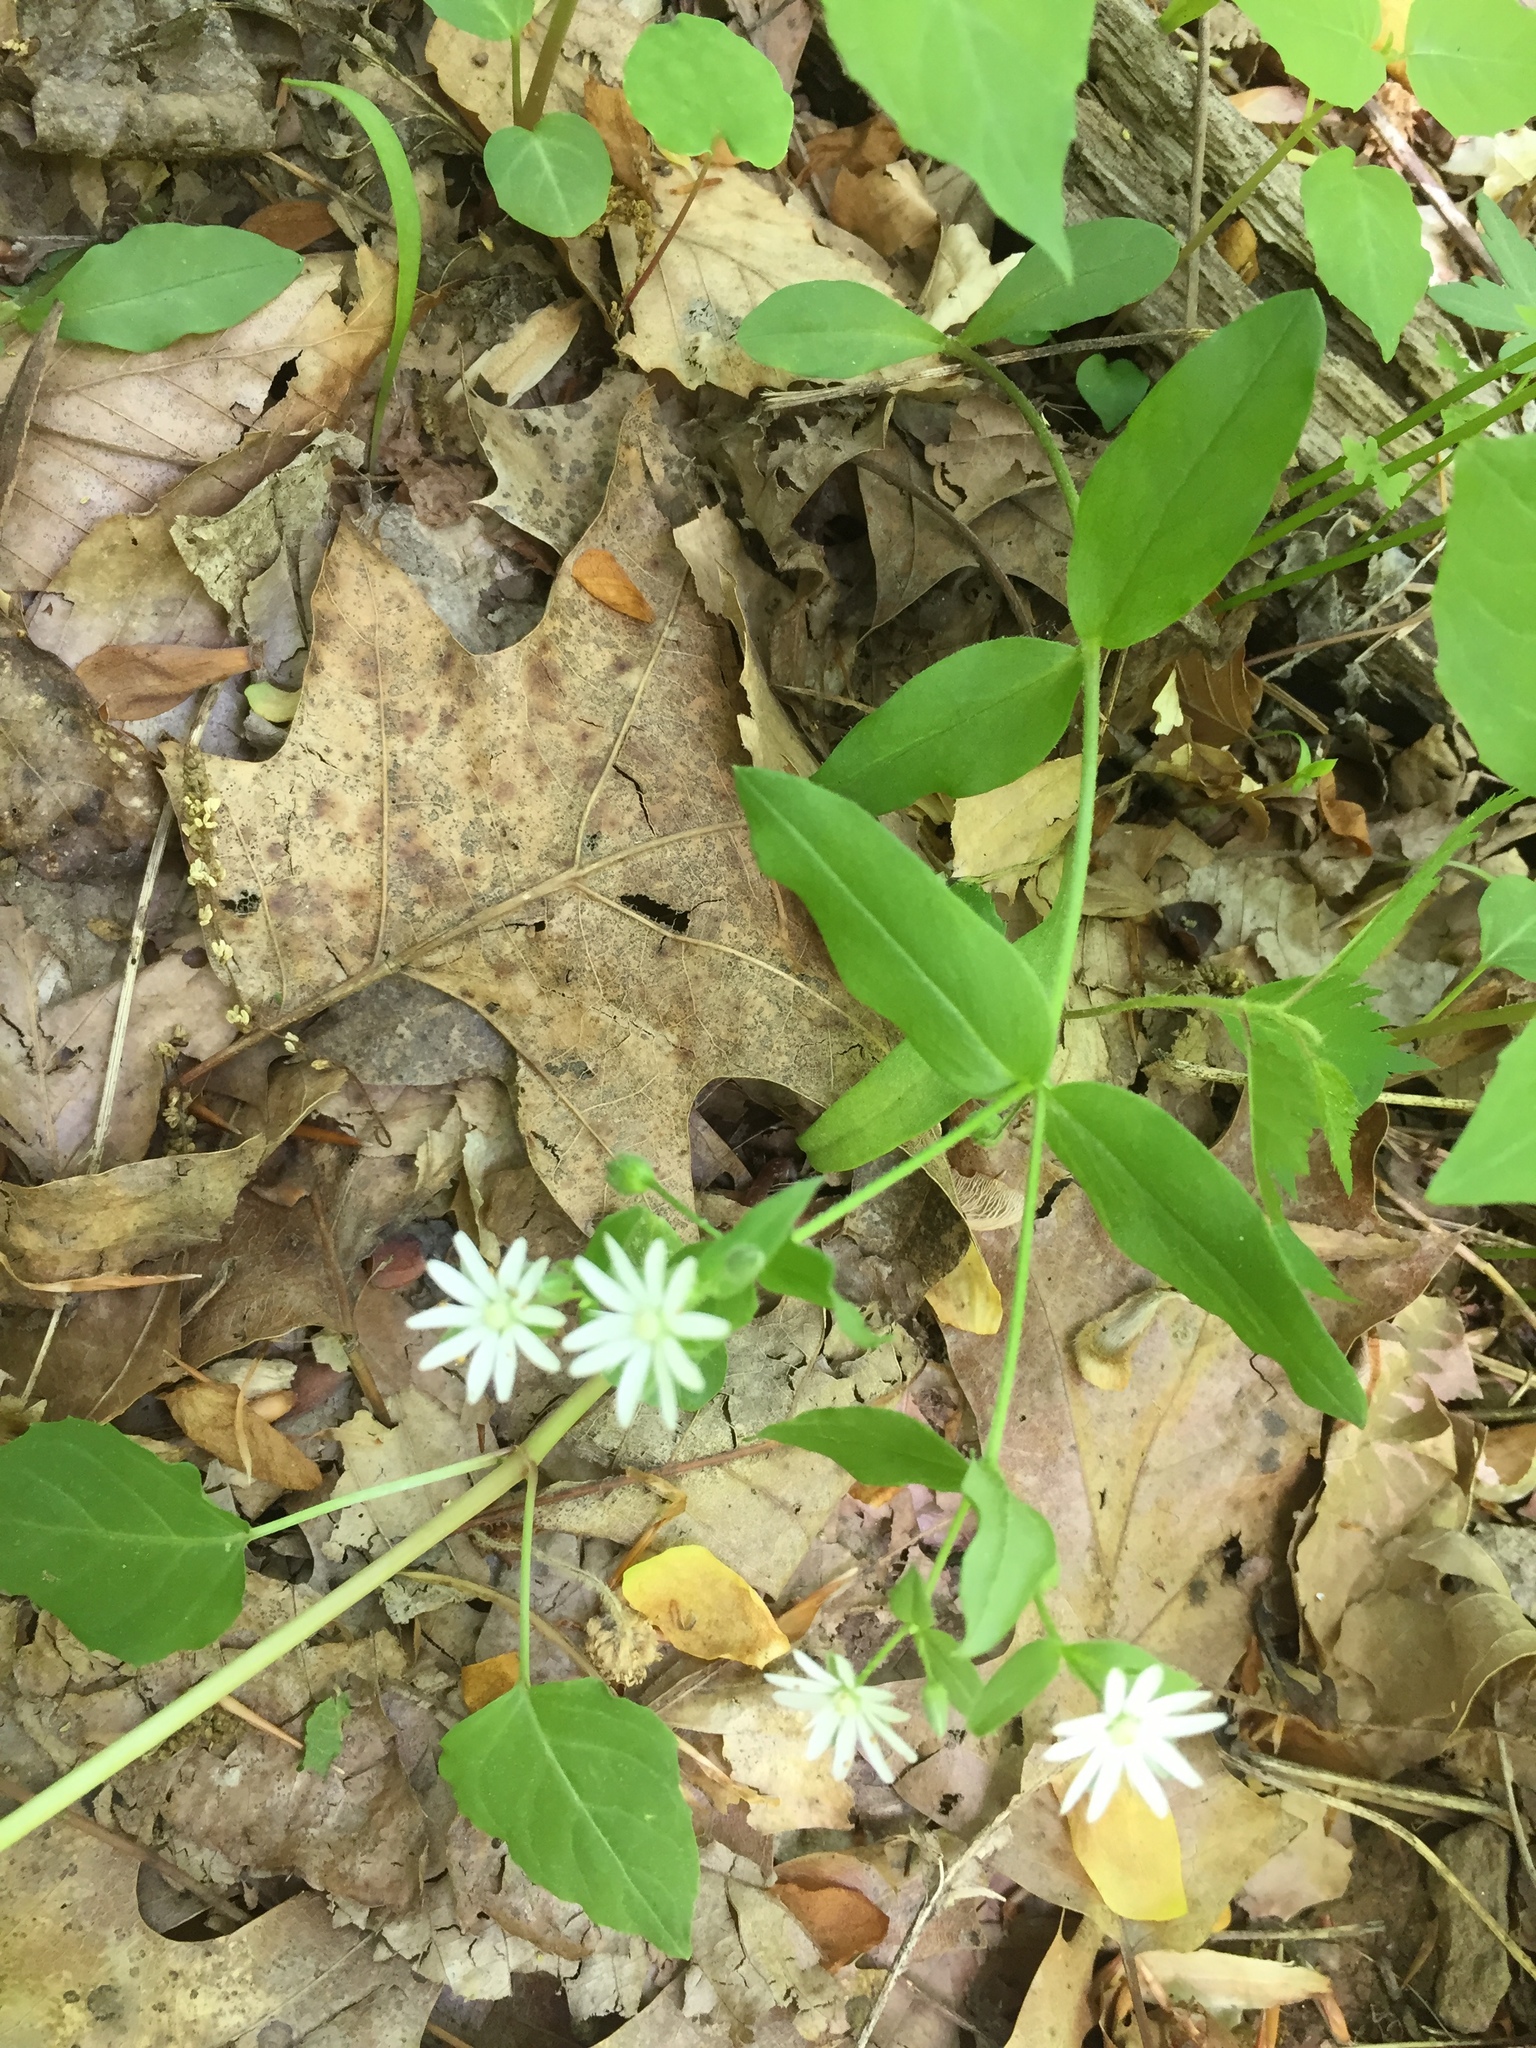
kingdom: Plantae
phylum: Tracheophyta
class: Magnoliopsida
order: Caryophyllales
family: Caryophyllaceae
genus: Stellaria
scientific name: Stellaria pubera
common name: Star chickweed
